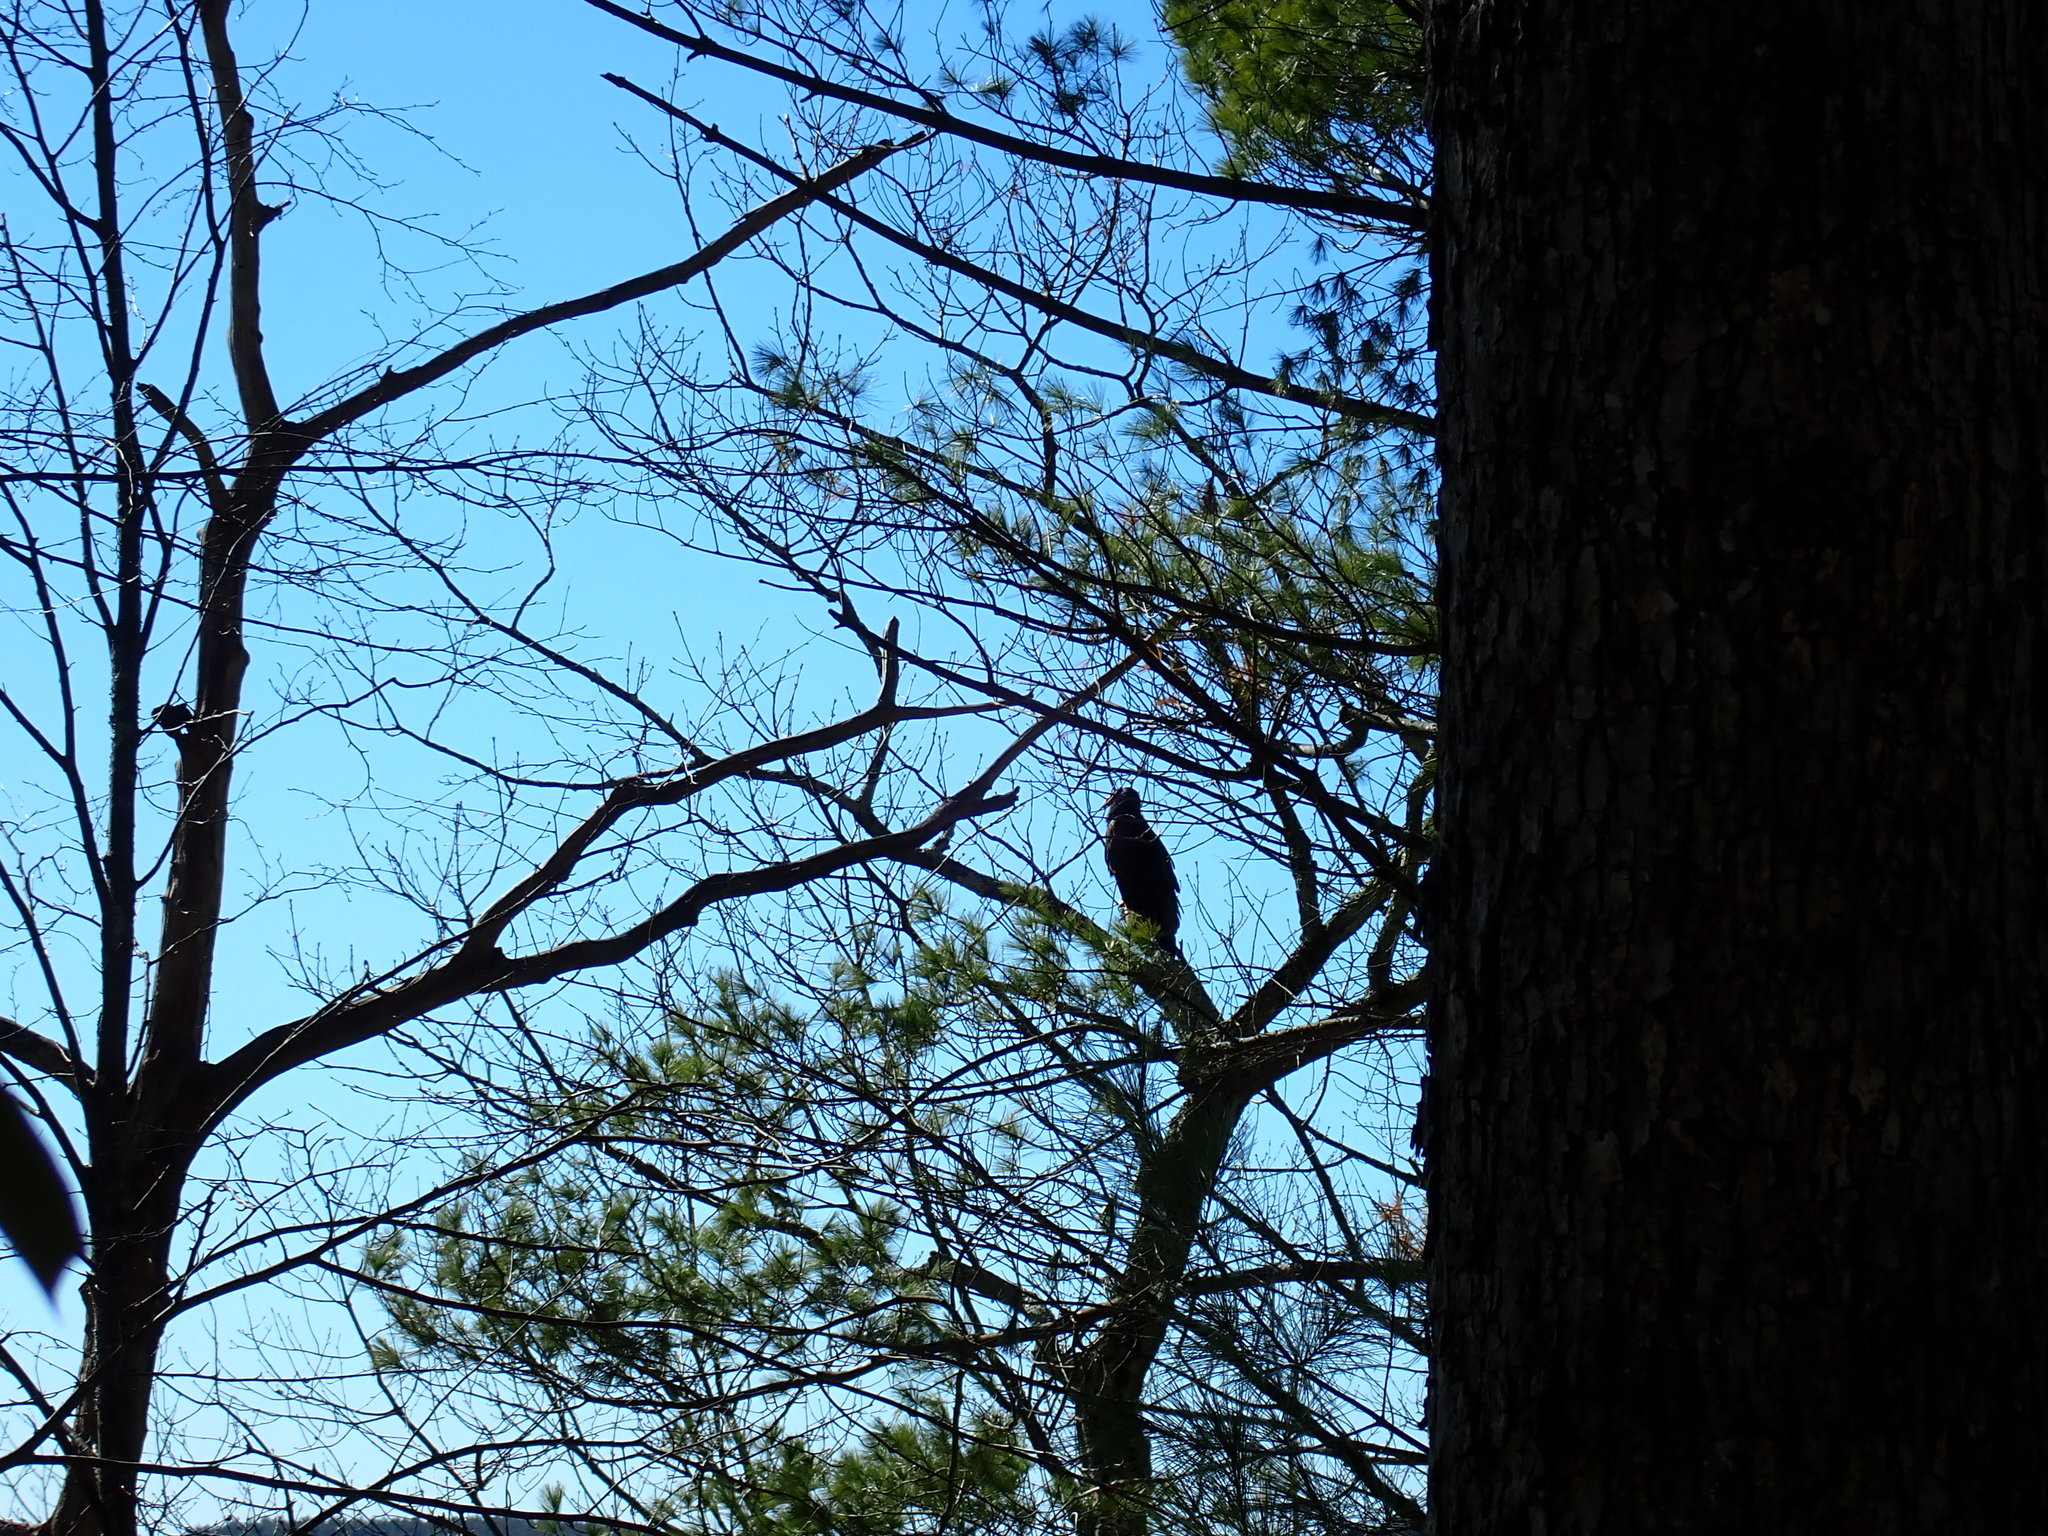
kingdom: Animalia
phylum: Chordata
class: Aves
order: Accipitriformes
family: Cathartidae
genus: Cathartes
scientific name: Cathartes aura
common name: Turkey vulture
